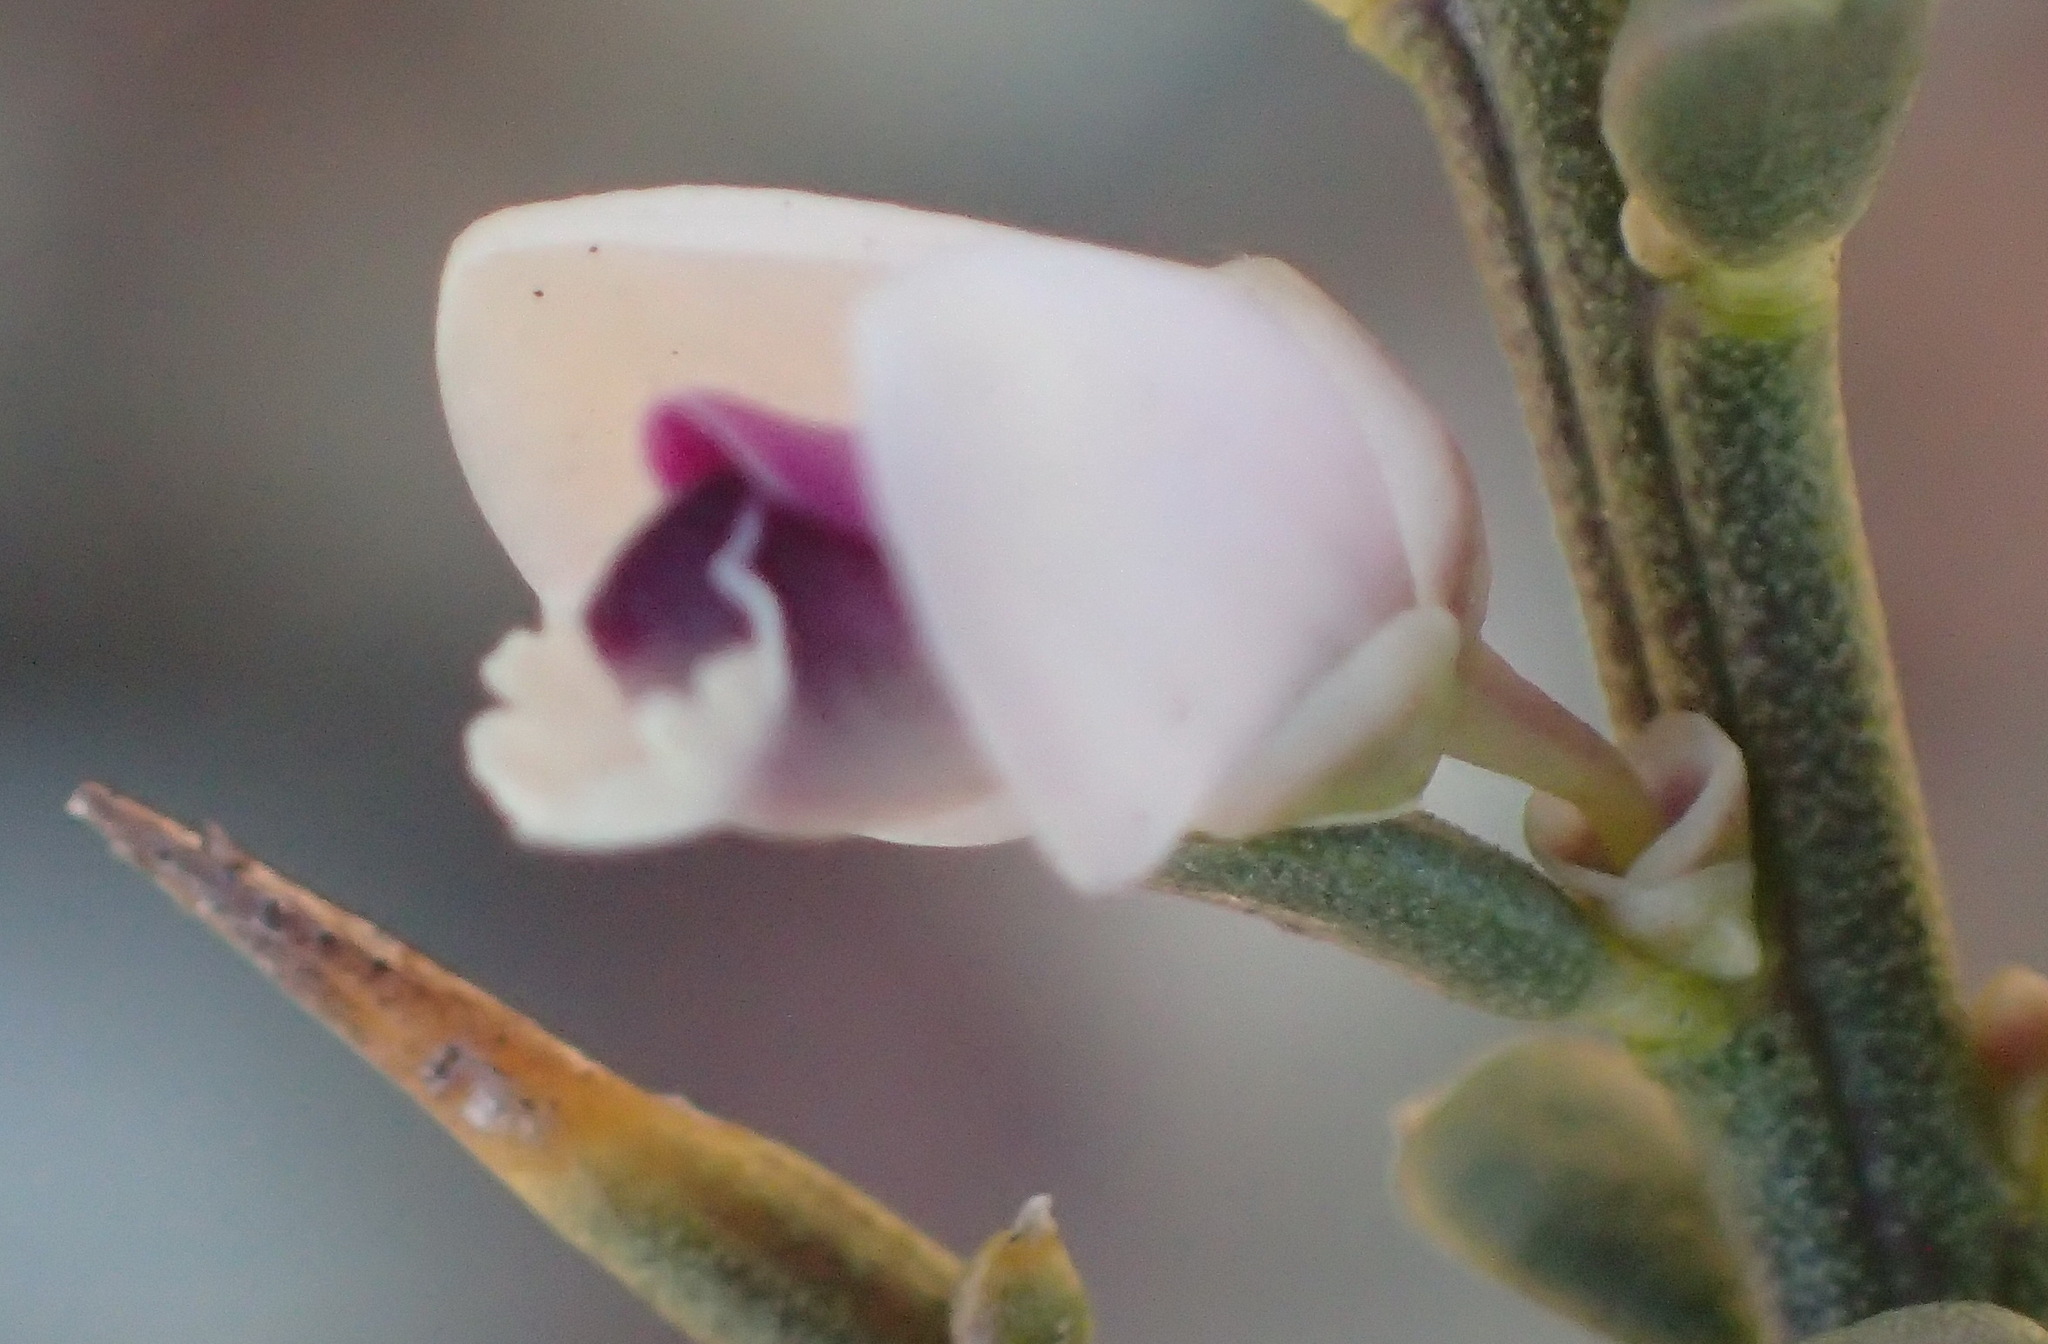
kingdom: Plantae
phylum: Tracheophyta
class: Magnoliopsida
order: Fabales
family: Polygalaceae
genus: Muraltia
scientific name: Muraltia spinosa
